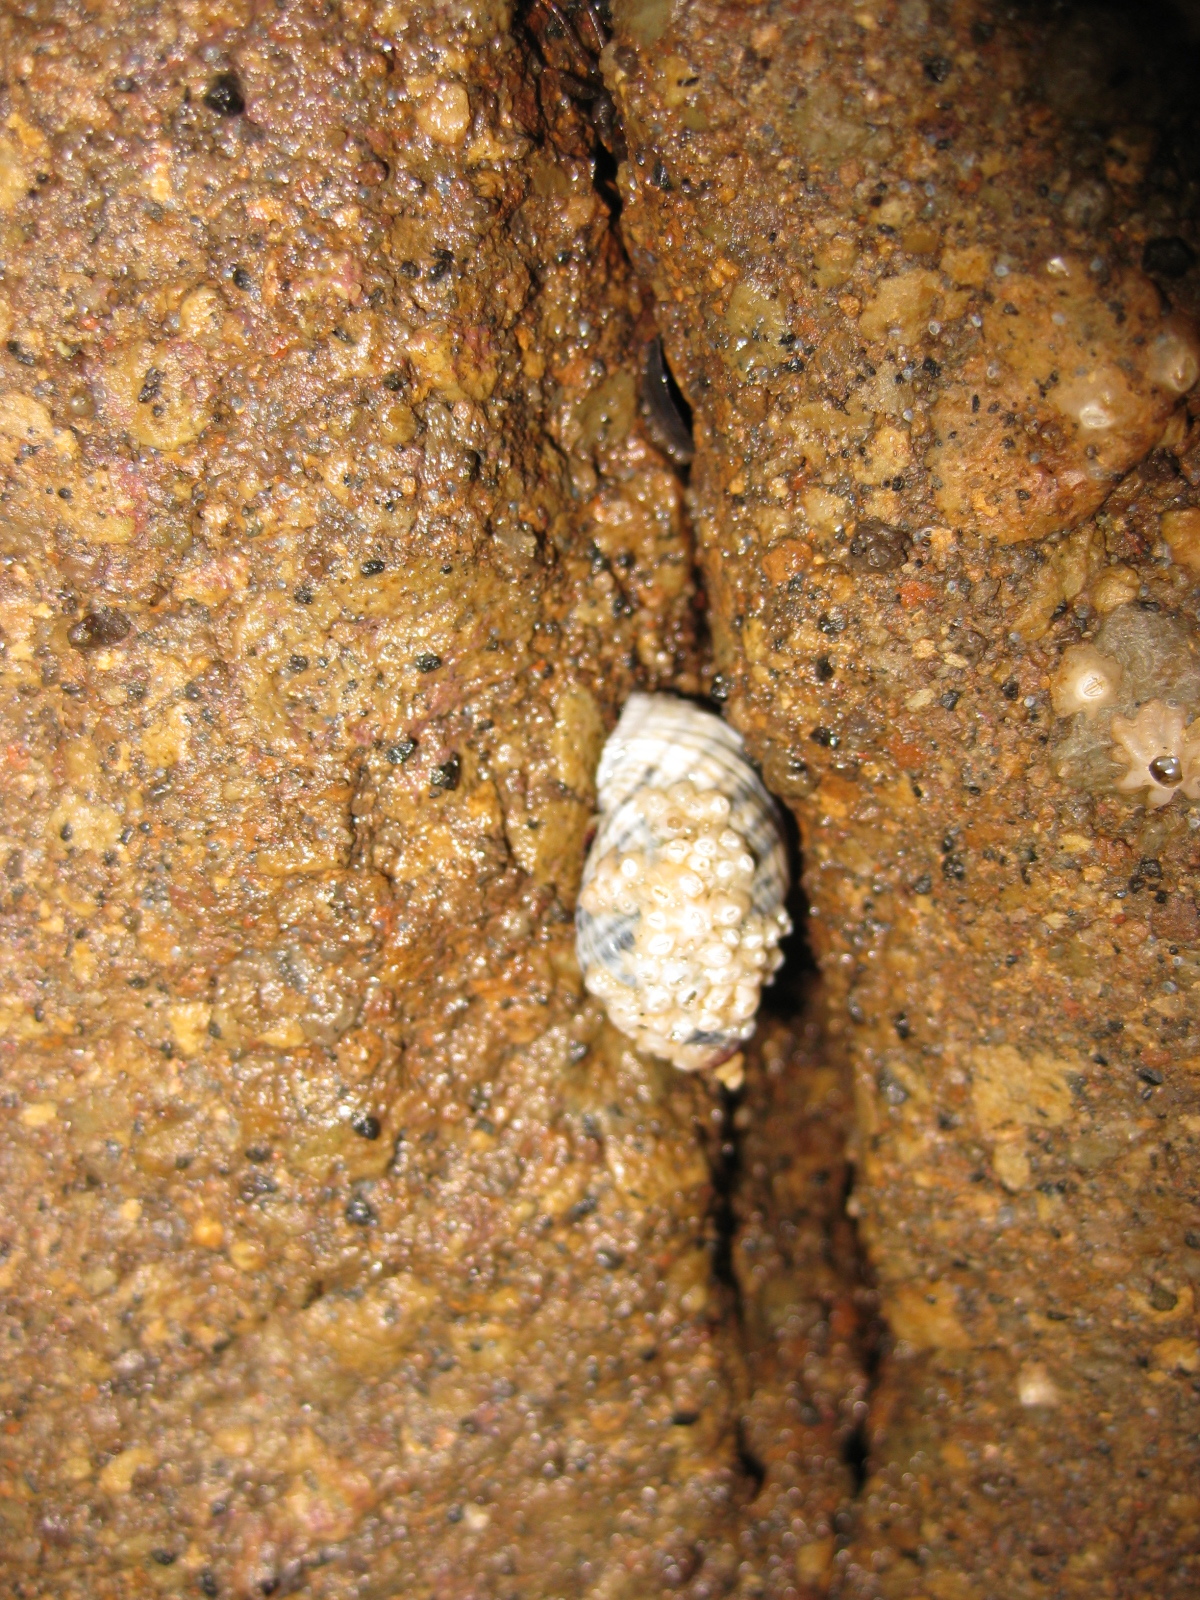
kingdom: Animalia
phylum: Mollusca
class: Gastropoda
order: Neogastropoda
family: Muricidae
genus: Haustrum
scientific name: Haustrum albomarginatum
